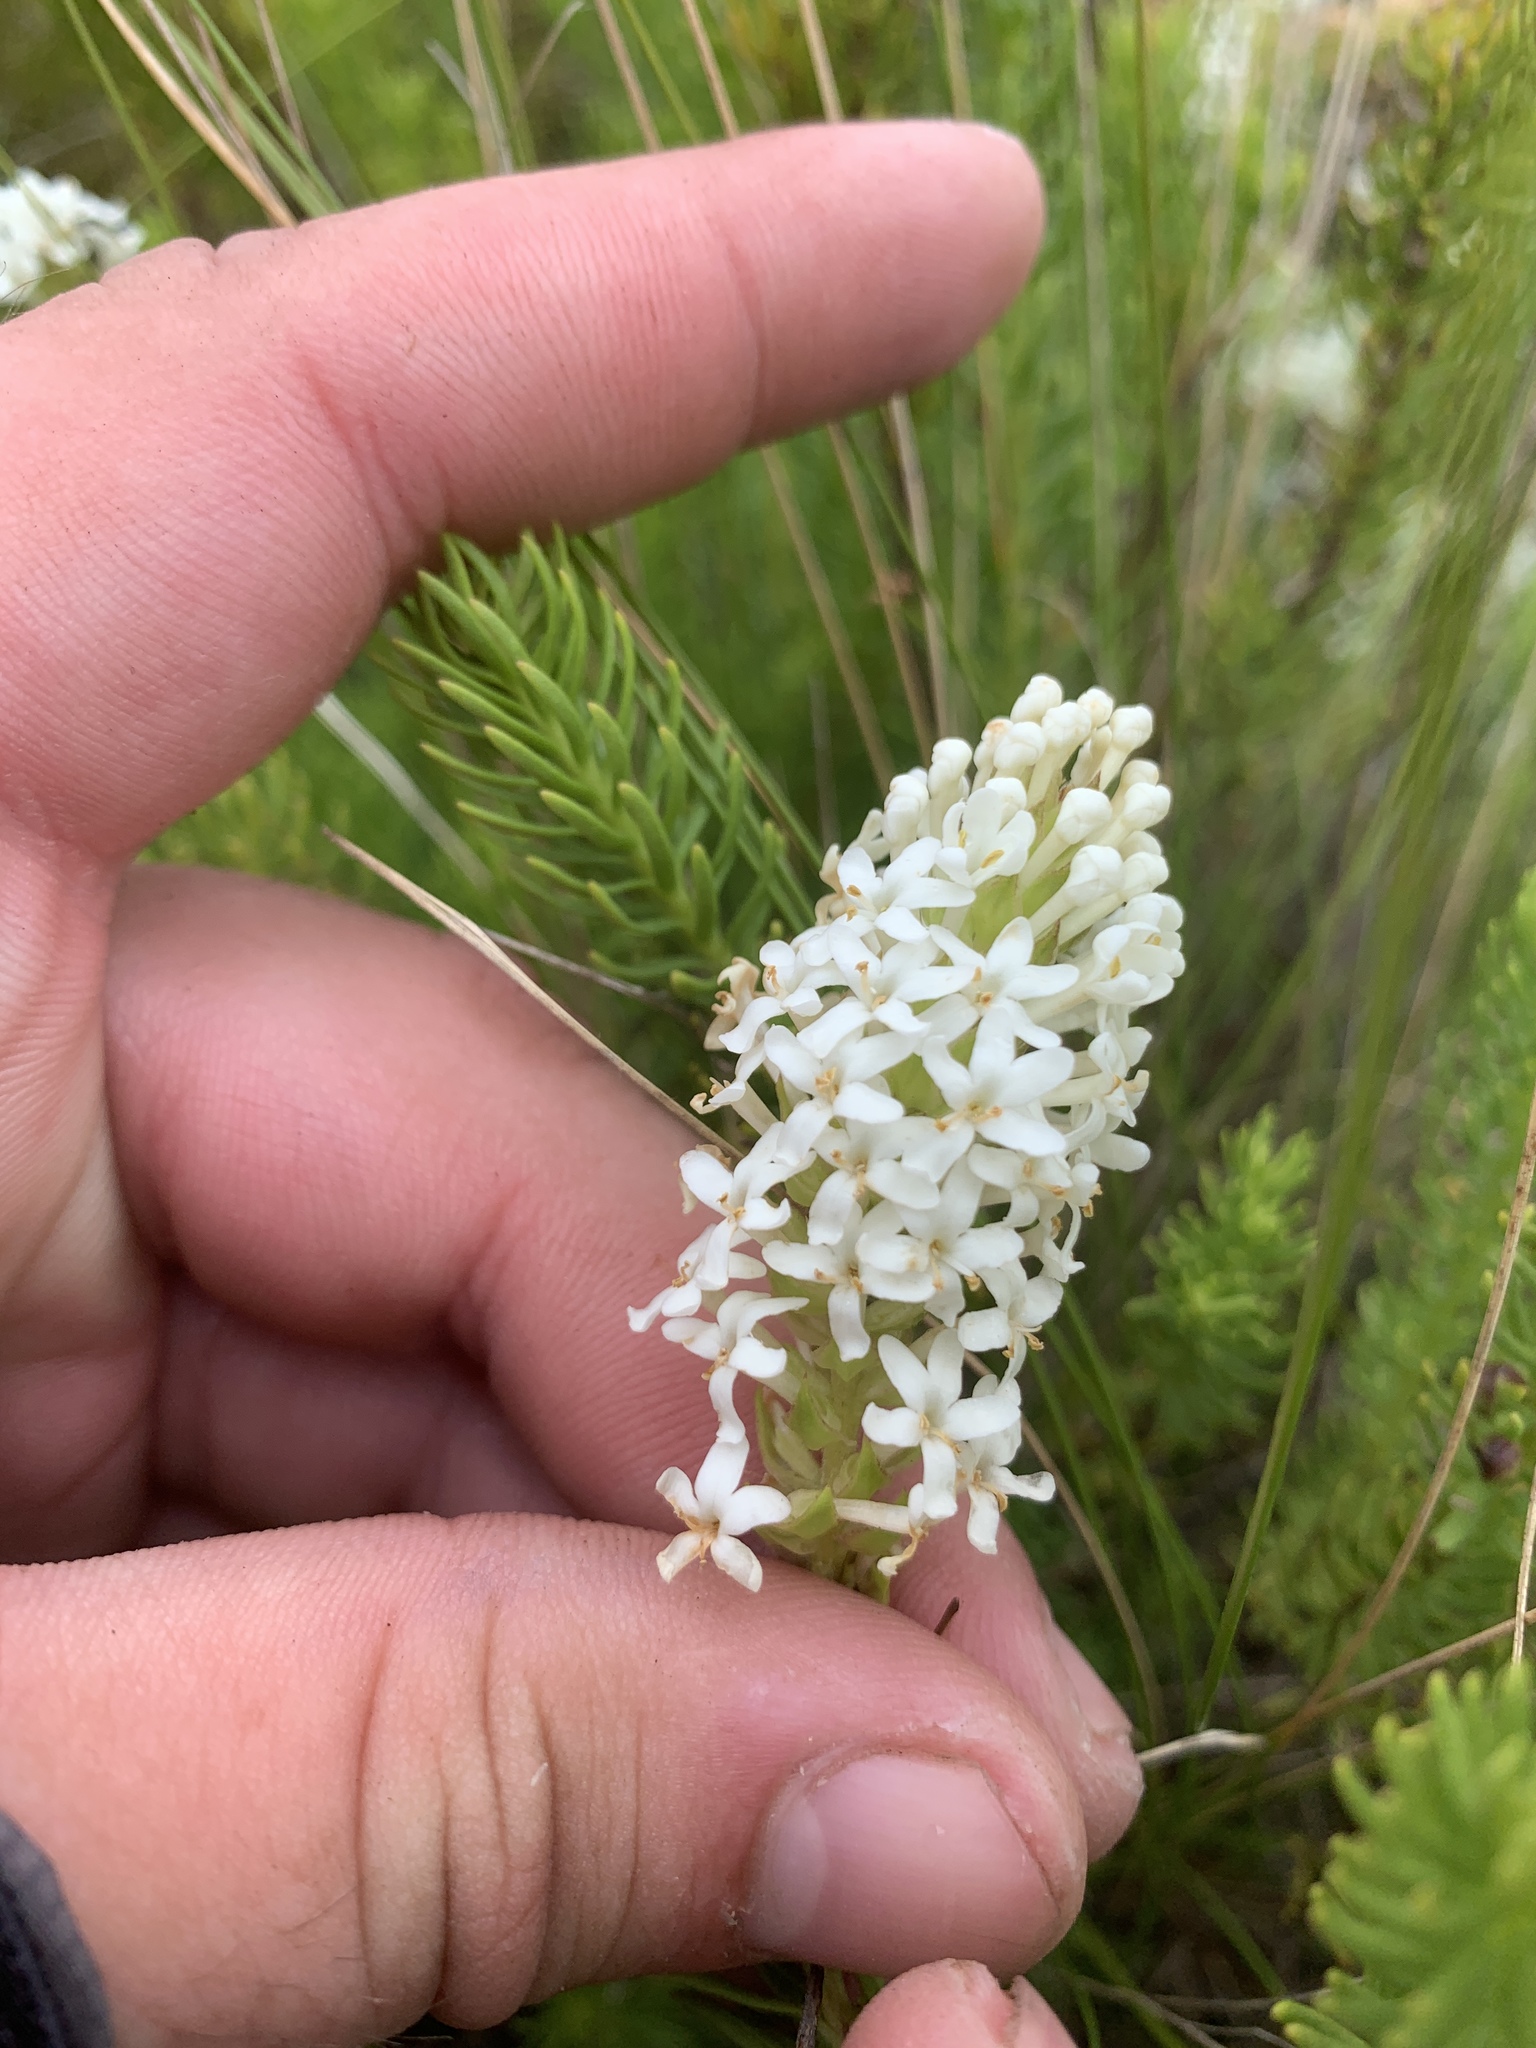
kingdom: Plantae
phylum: Tracheophyta
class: Magnoliopsida
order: Lamiales
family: Scrophulariaceae
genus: Selago
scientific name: Selago hispida
